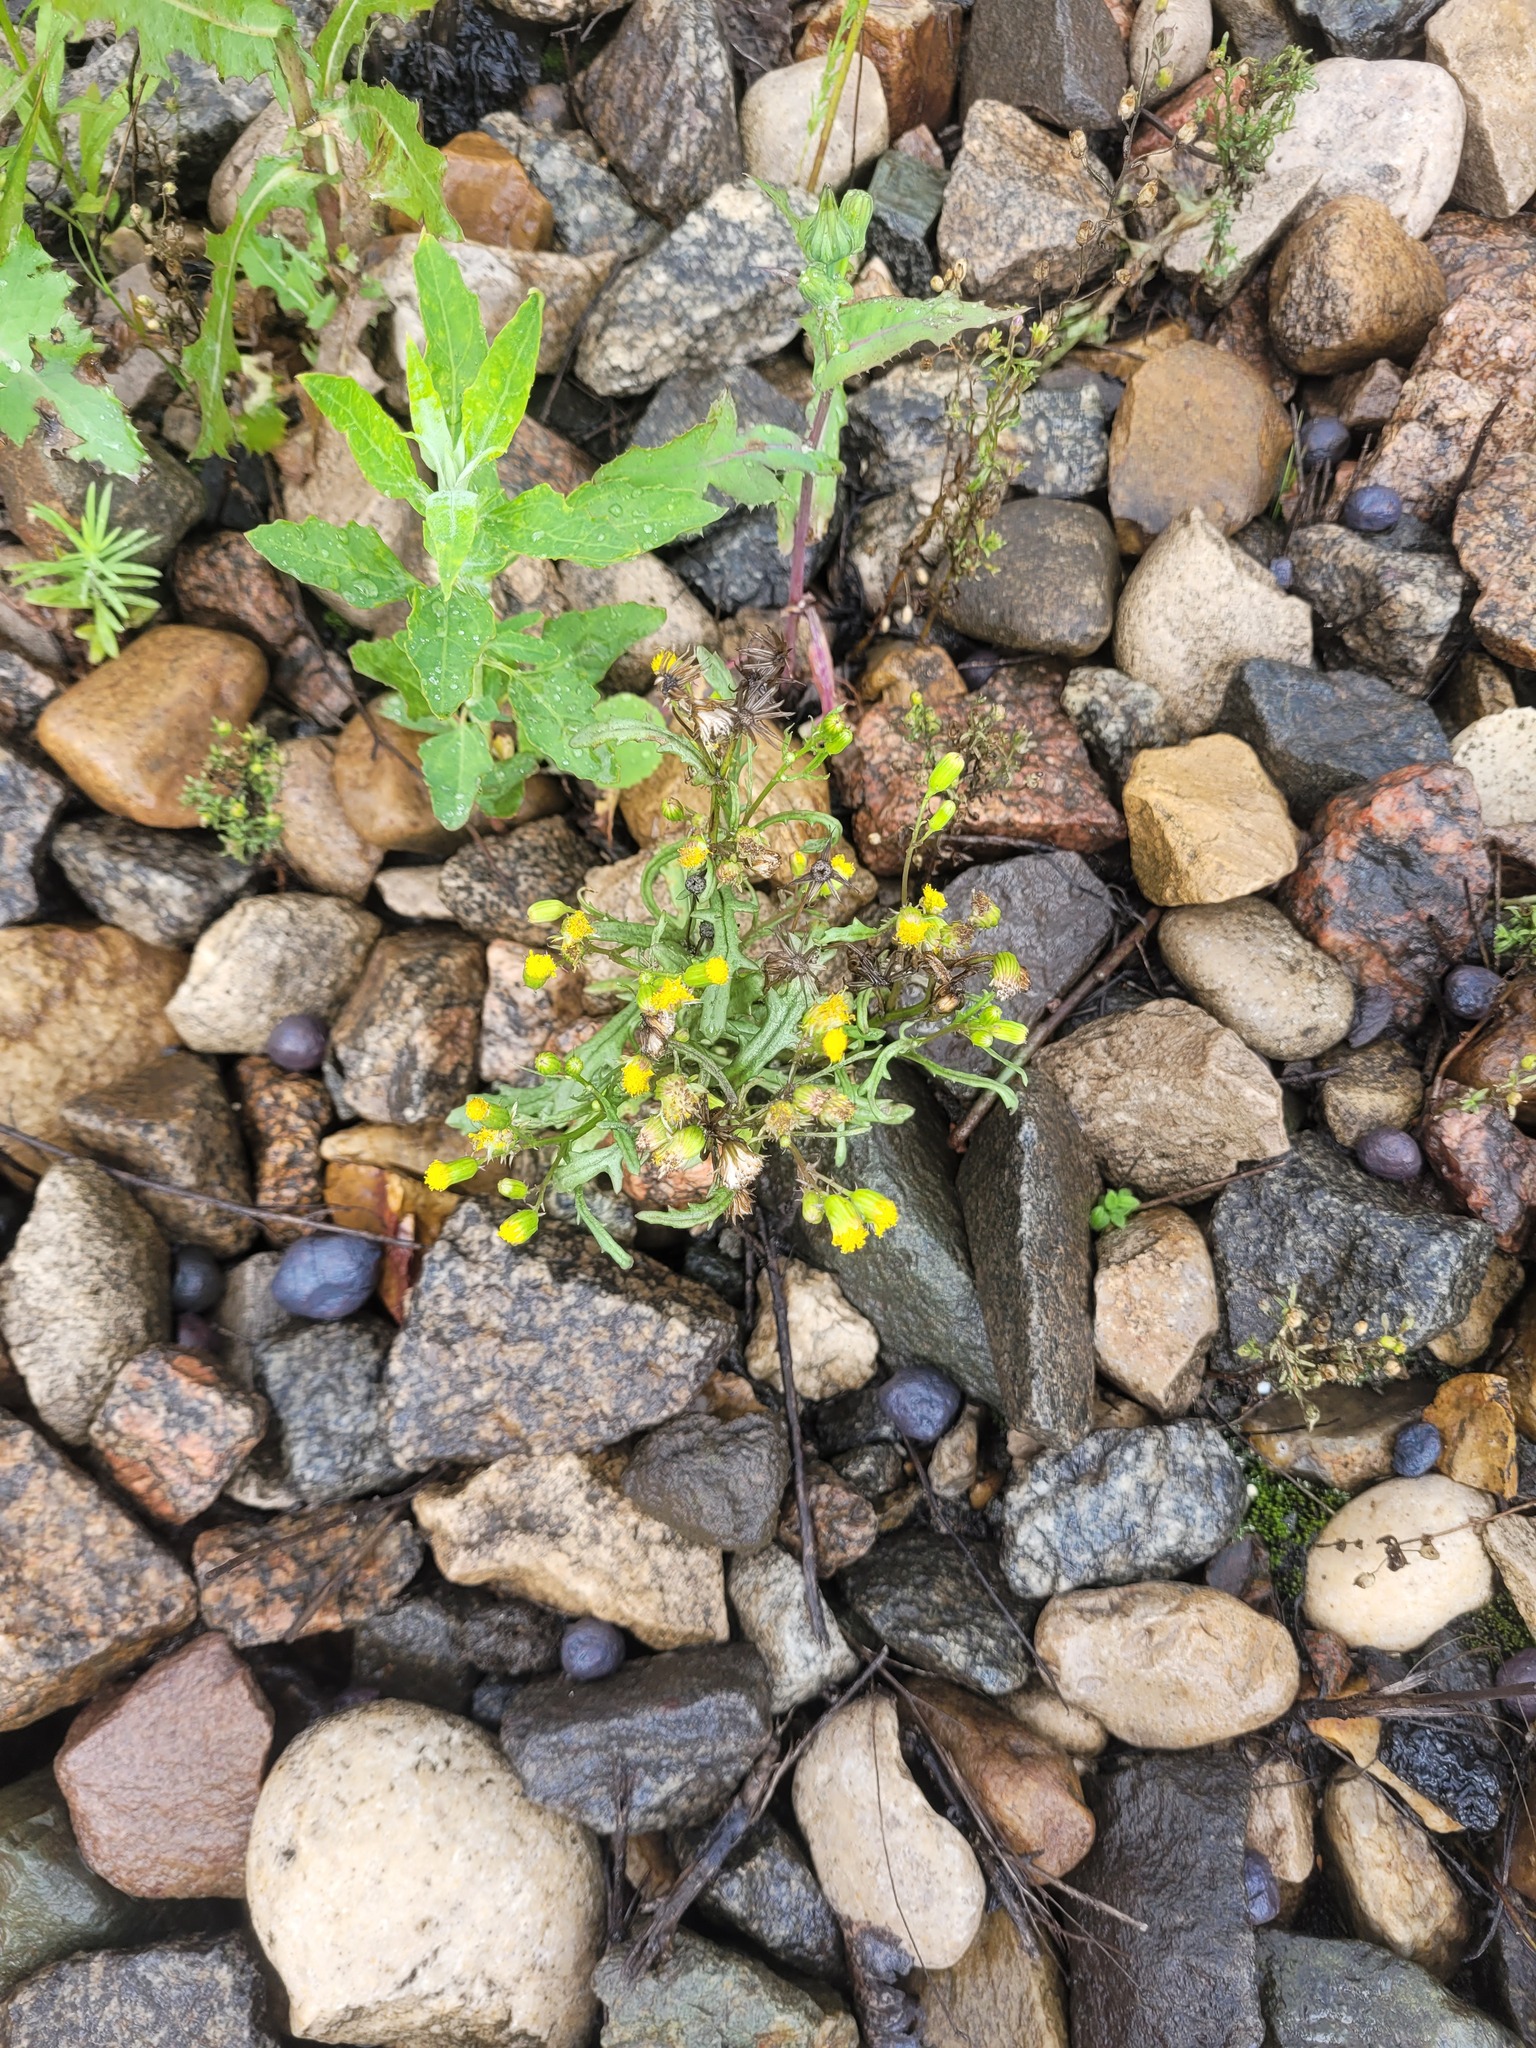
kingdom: Plantae
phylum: Tracheophyta
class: Magnoliopsida
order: Asterales
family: Asteraceae
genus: Senecio
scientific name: Senecio dubitabilis
